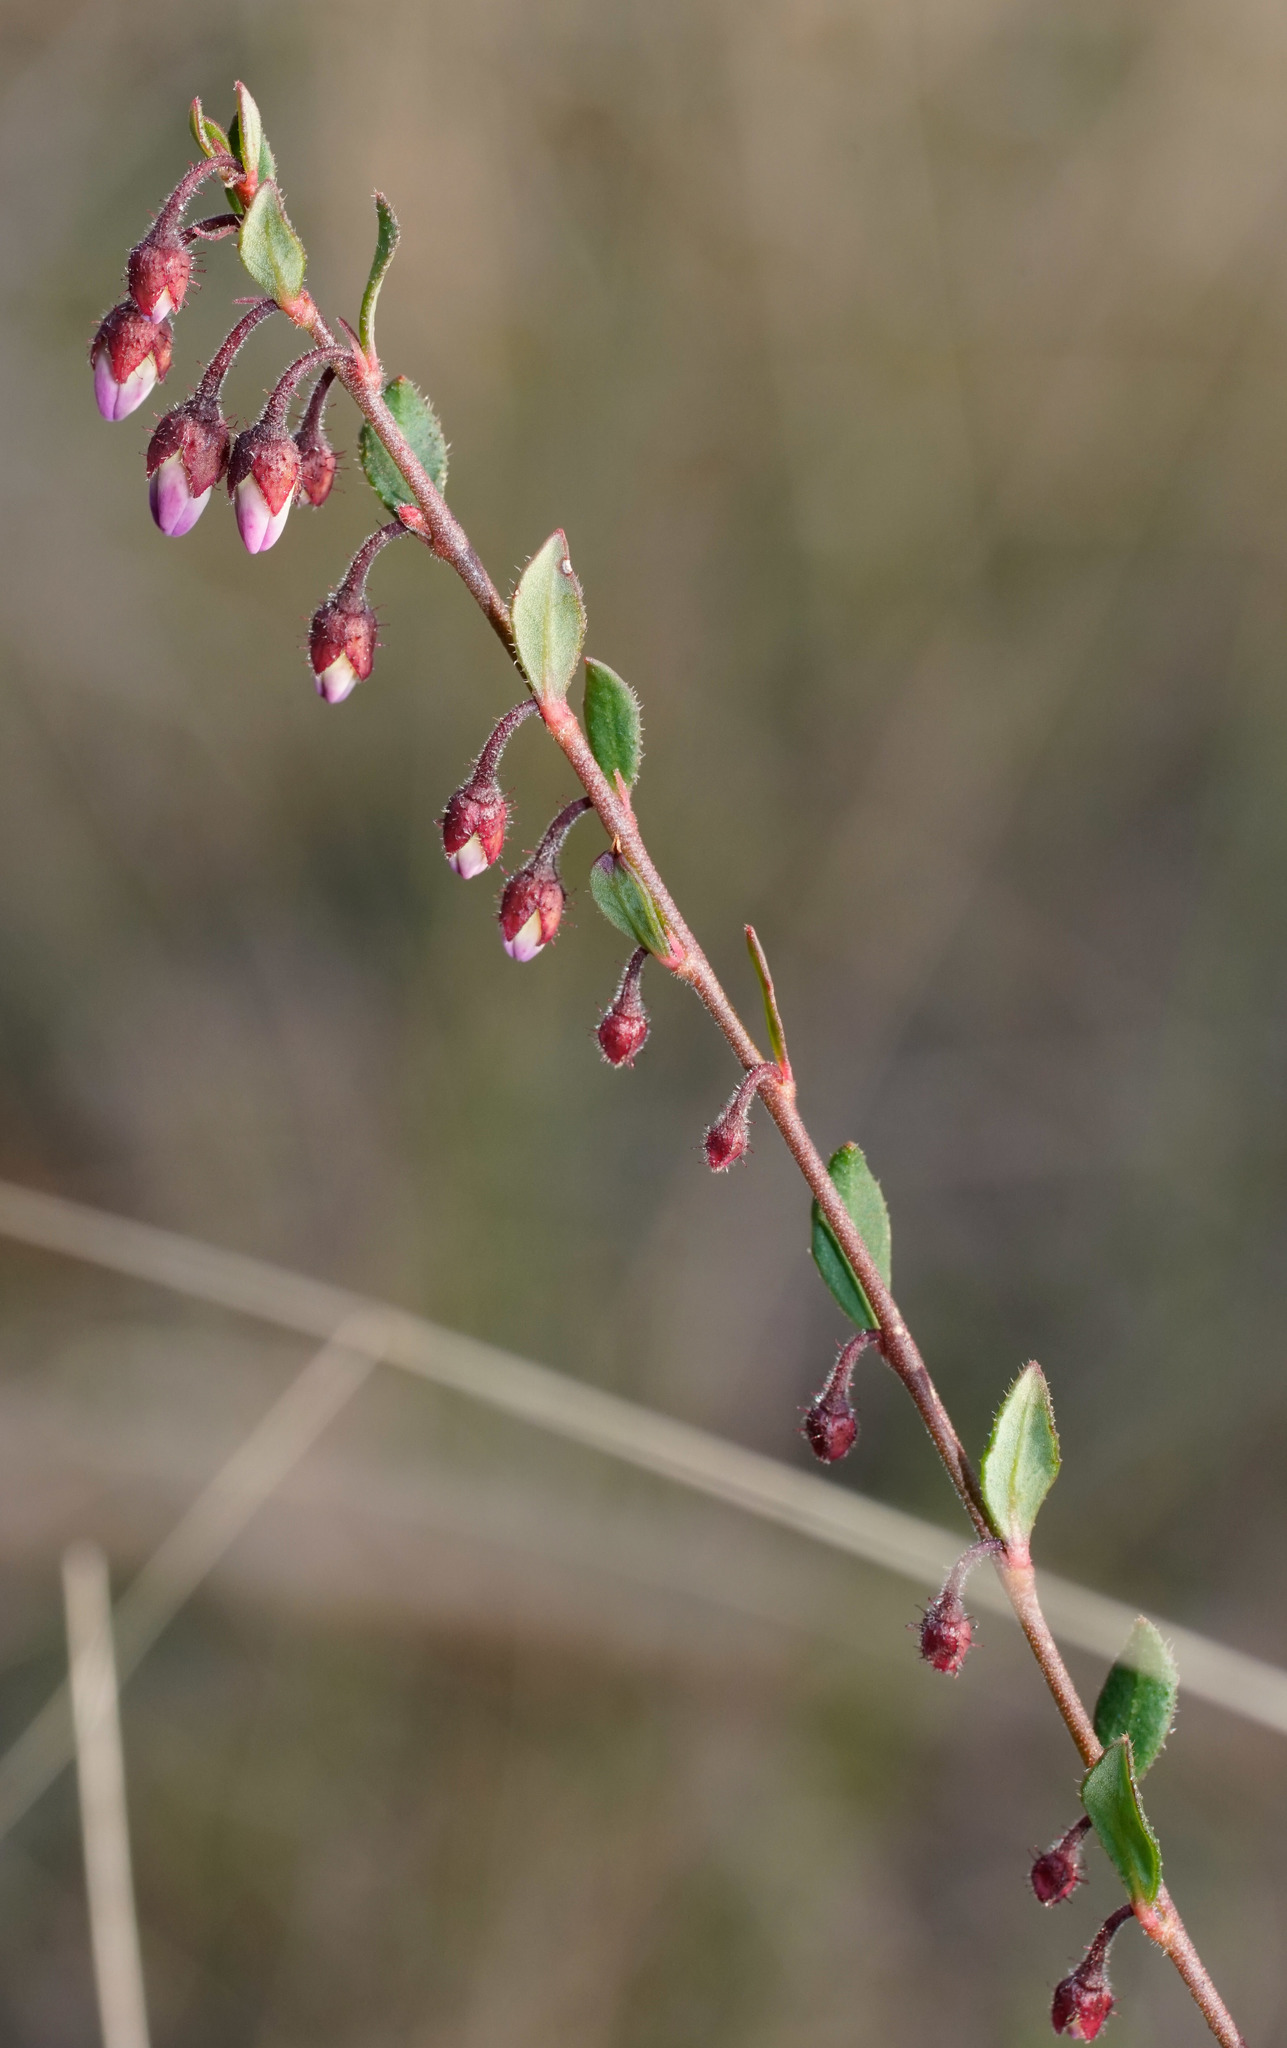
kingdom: Plantae
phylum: Tracheophyta
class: Magnoliopsida
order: Oxalidales
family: Elaeocarpaceae
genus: Tetratheca
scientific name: Tetratheca ciliata
